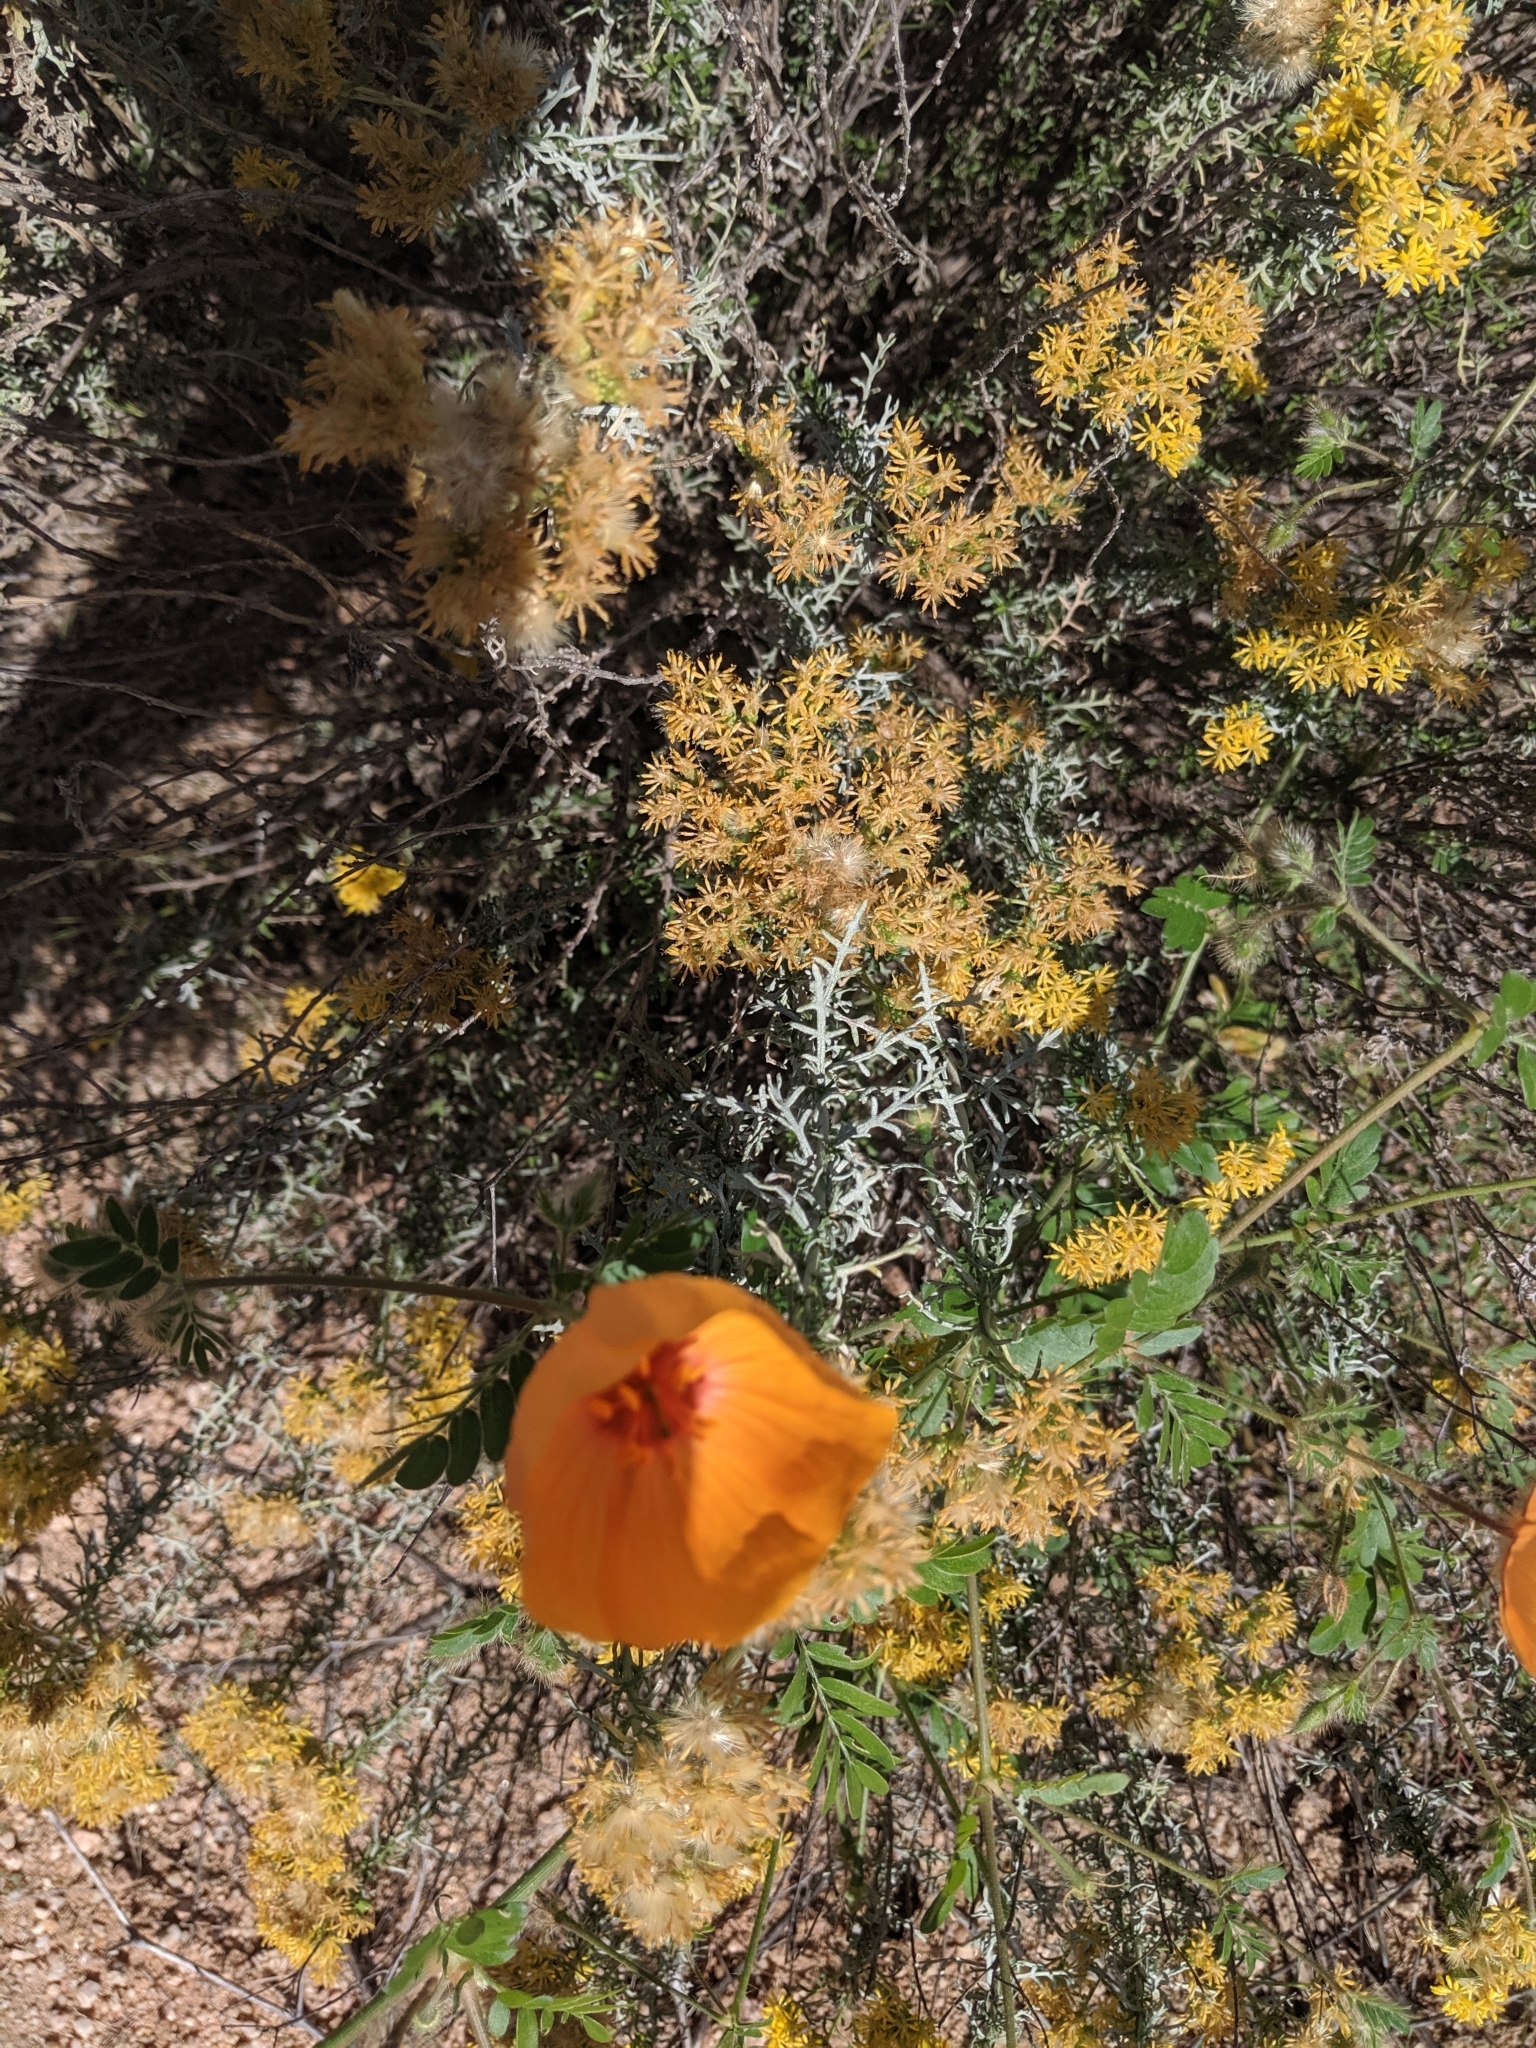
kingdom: Plantae
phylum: Tracheophyta
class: Magnoliopsida
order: Zygophyllales
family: Zygophyllaceae
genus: Kallstroemia
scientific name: Kallstroemia grandiflora
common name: Arizona-poppy
